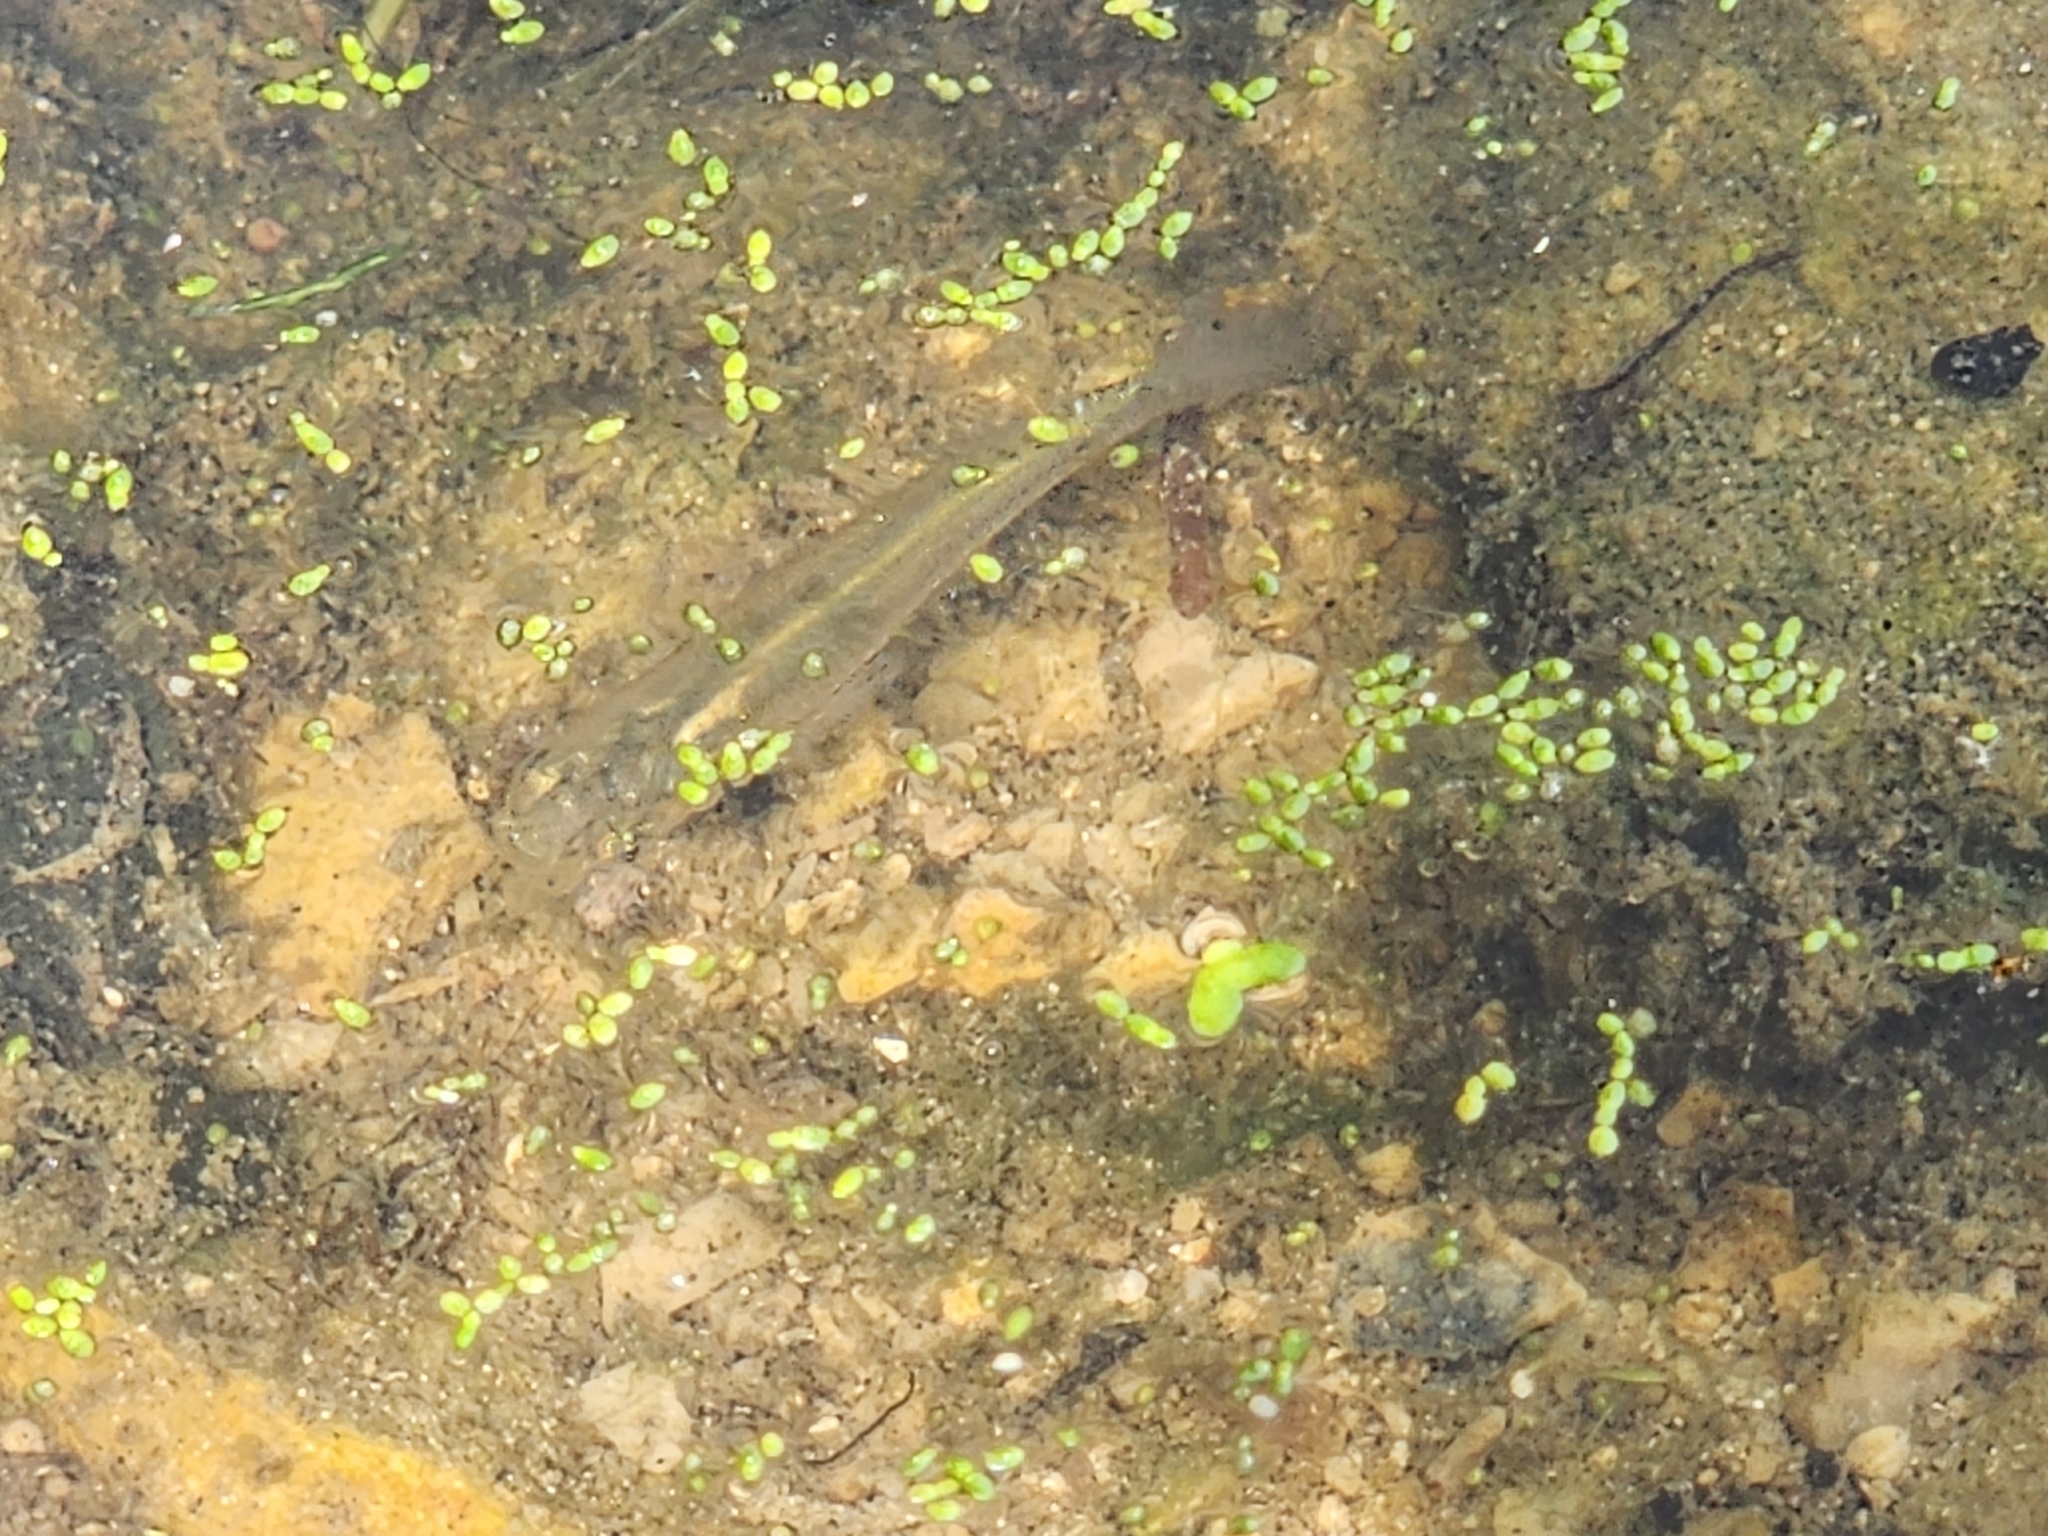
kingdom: Animalia
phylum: Chordata
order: Cyprinodontiformes
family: Poeciliidae
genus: Gambusia
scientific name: Gambusia affinis
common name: Mosquitofish
